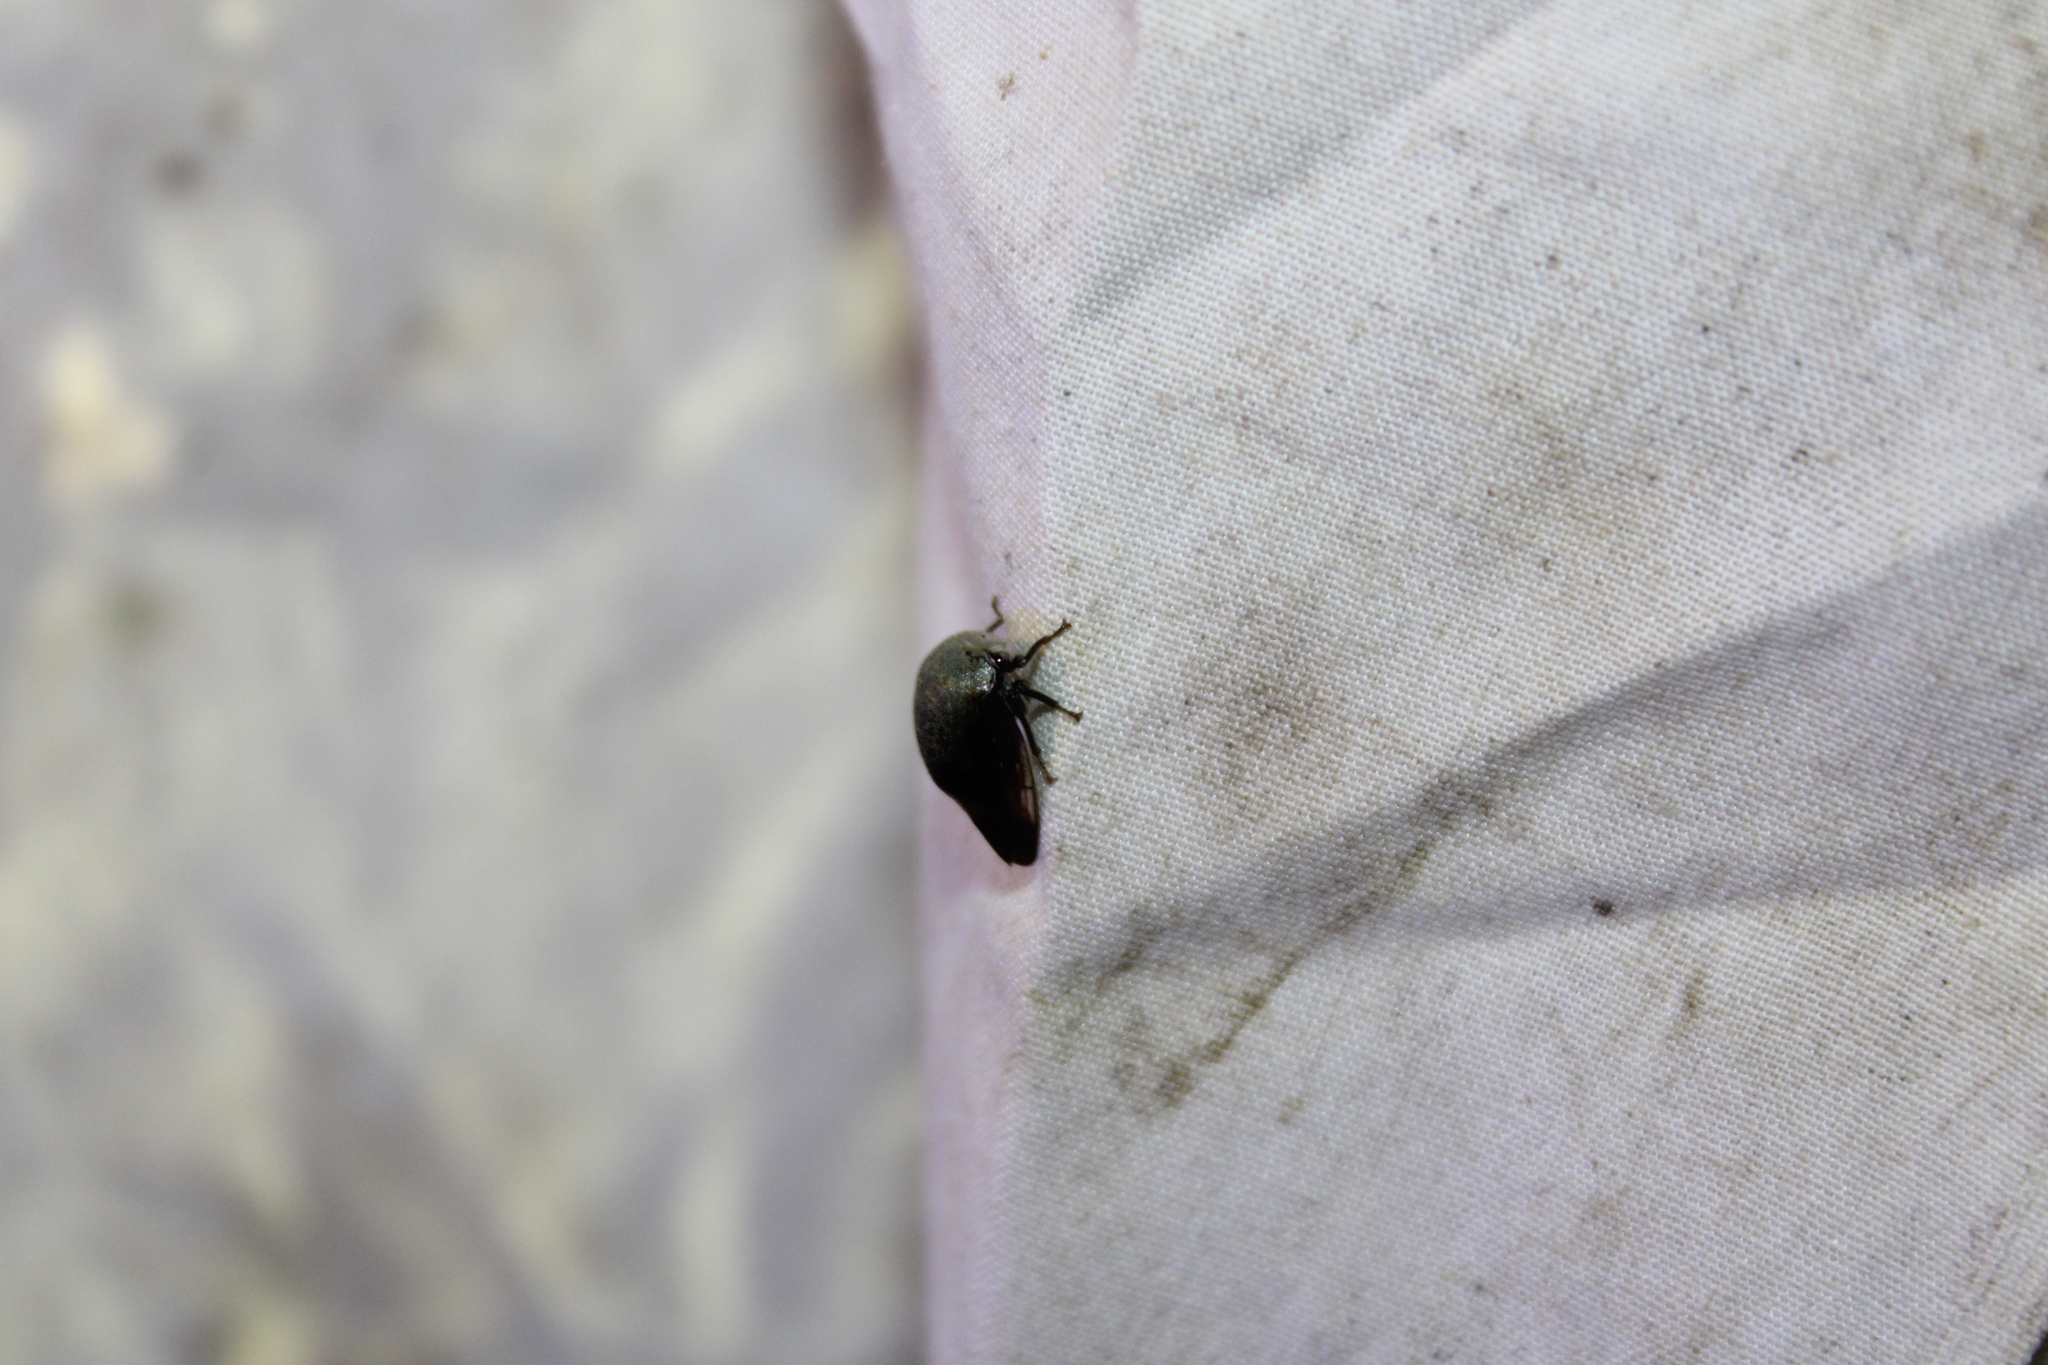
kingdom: Animalia
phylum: Arthropoda
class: Insecta
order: Hemiptera
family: Membracidae
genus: Carynota
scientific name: Carynota mera
